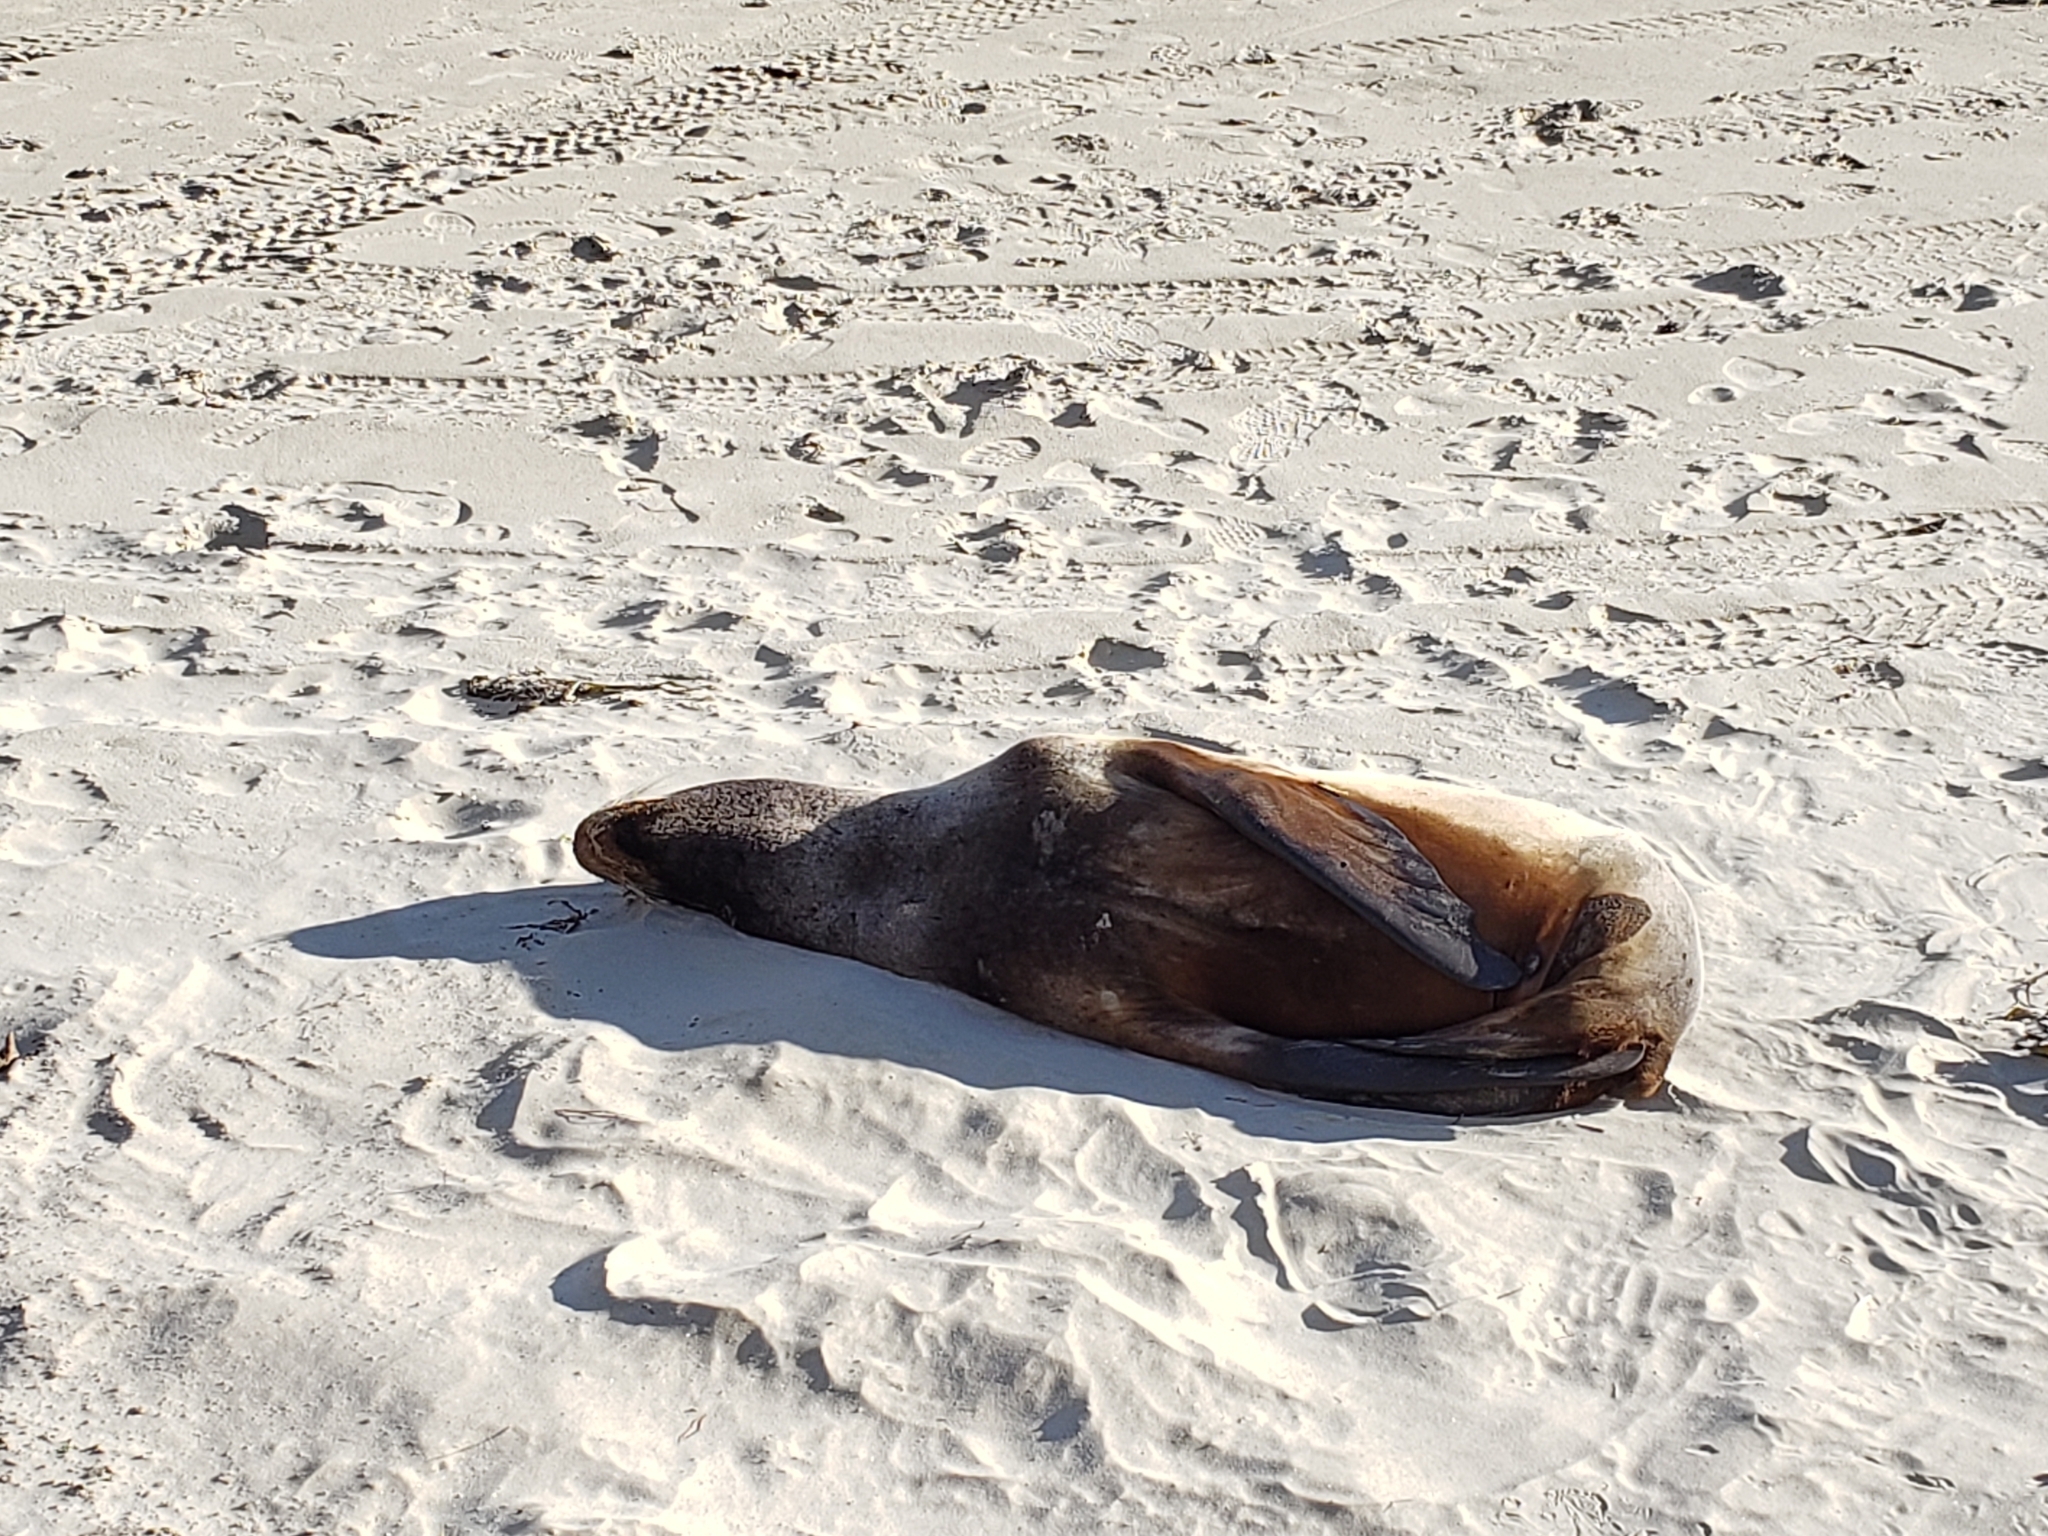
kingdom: Animalia
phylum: Chordata
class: Mammalia
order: Carnivora
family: Otariidae
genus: Phocarctos
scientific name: Phocarctos hookeri
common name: New zealand sea lion
